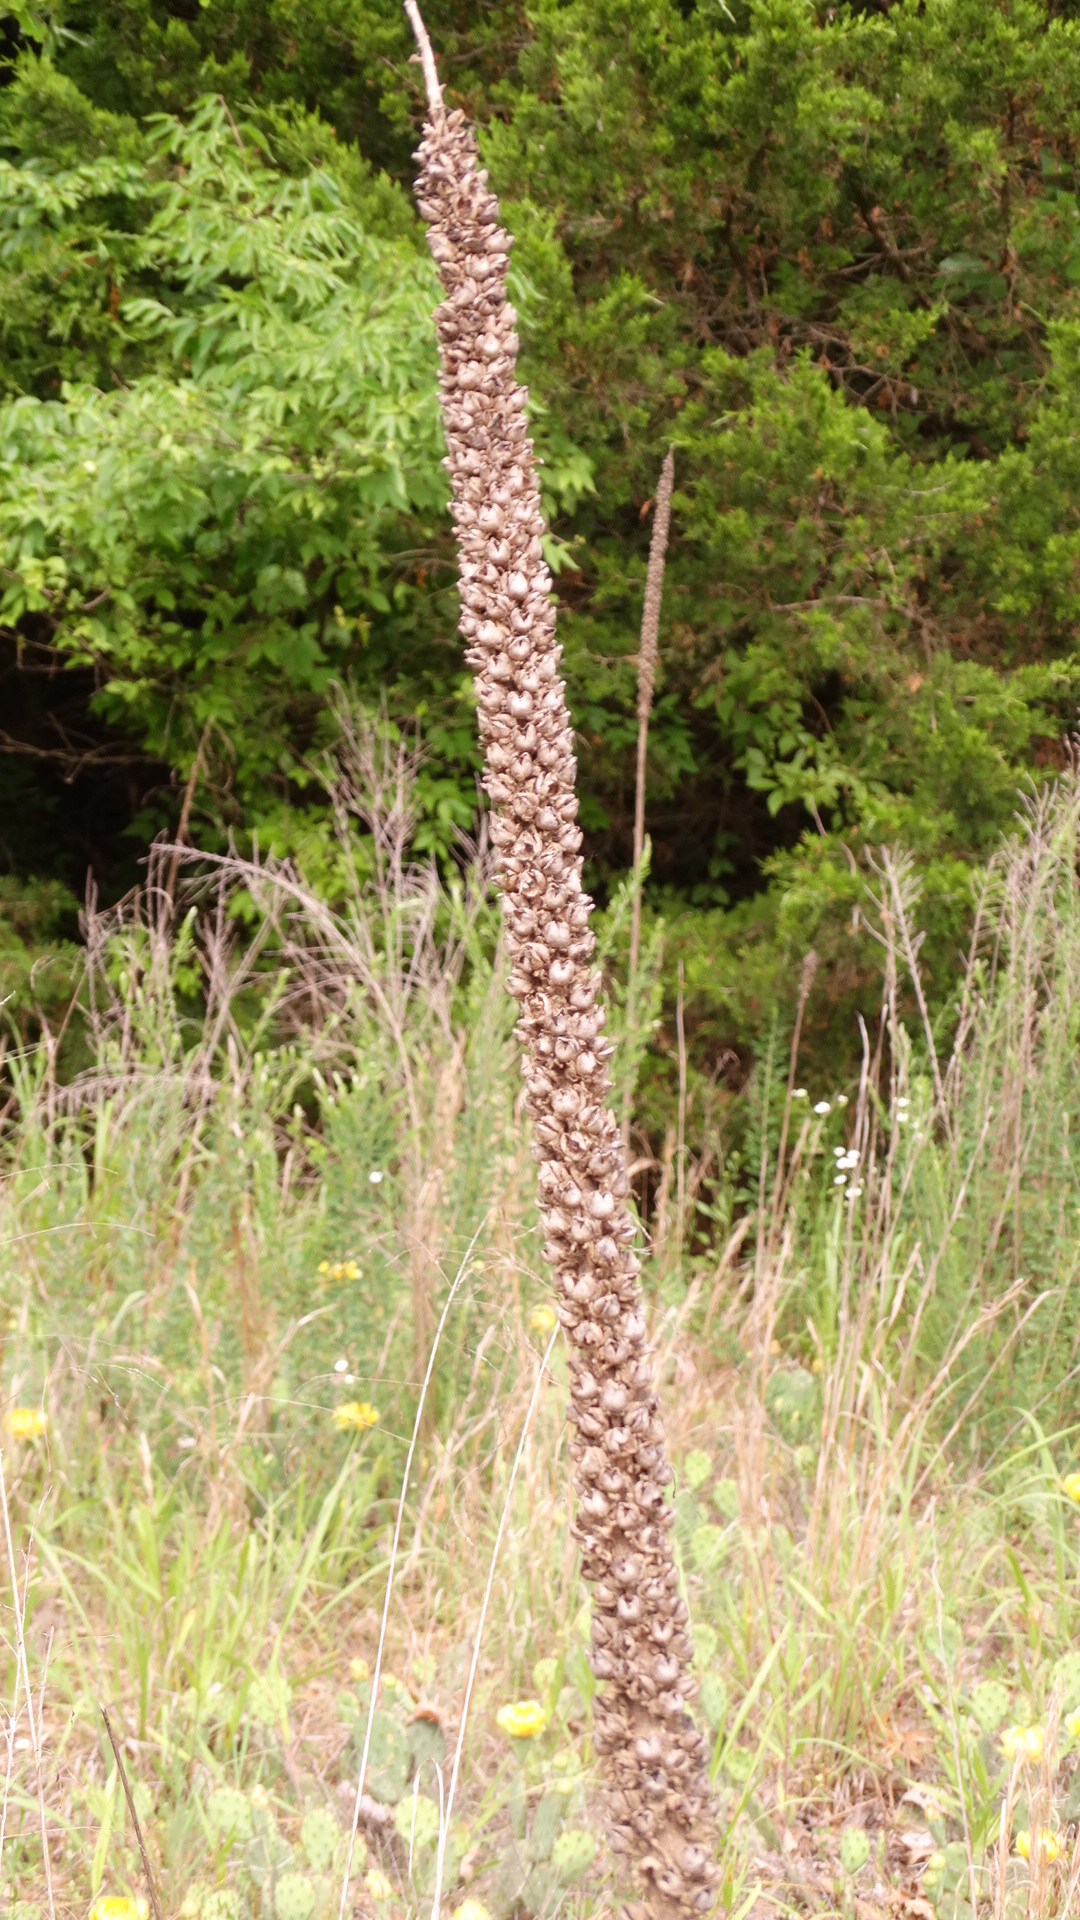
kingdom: Plantae
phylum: Tracheophyta
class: Magnoliopsida
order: Lamiales
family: Scrophulariaceae
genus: Verbascum
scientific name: Verbascum thapsus
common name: Common mullein
